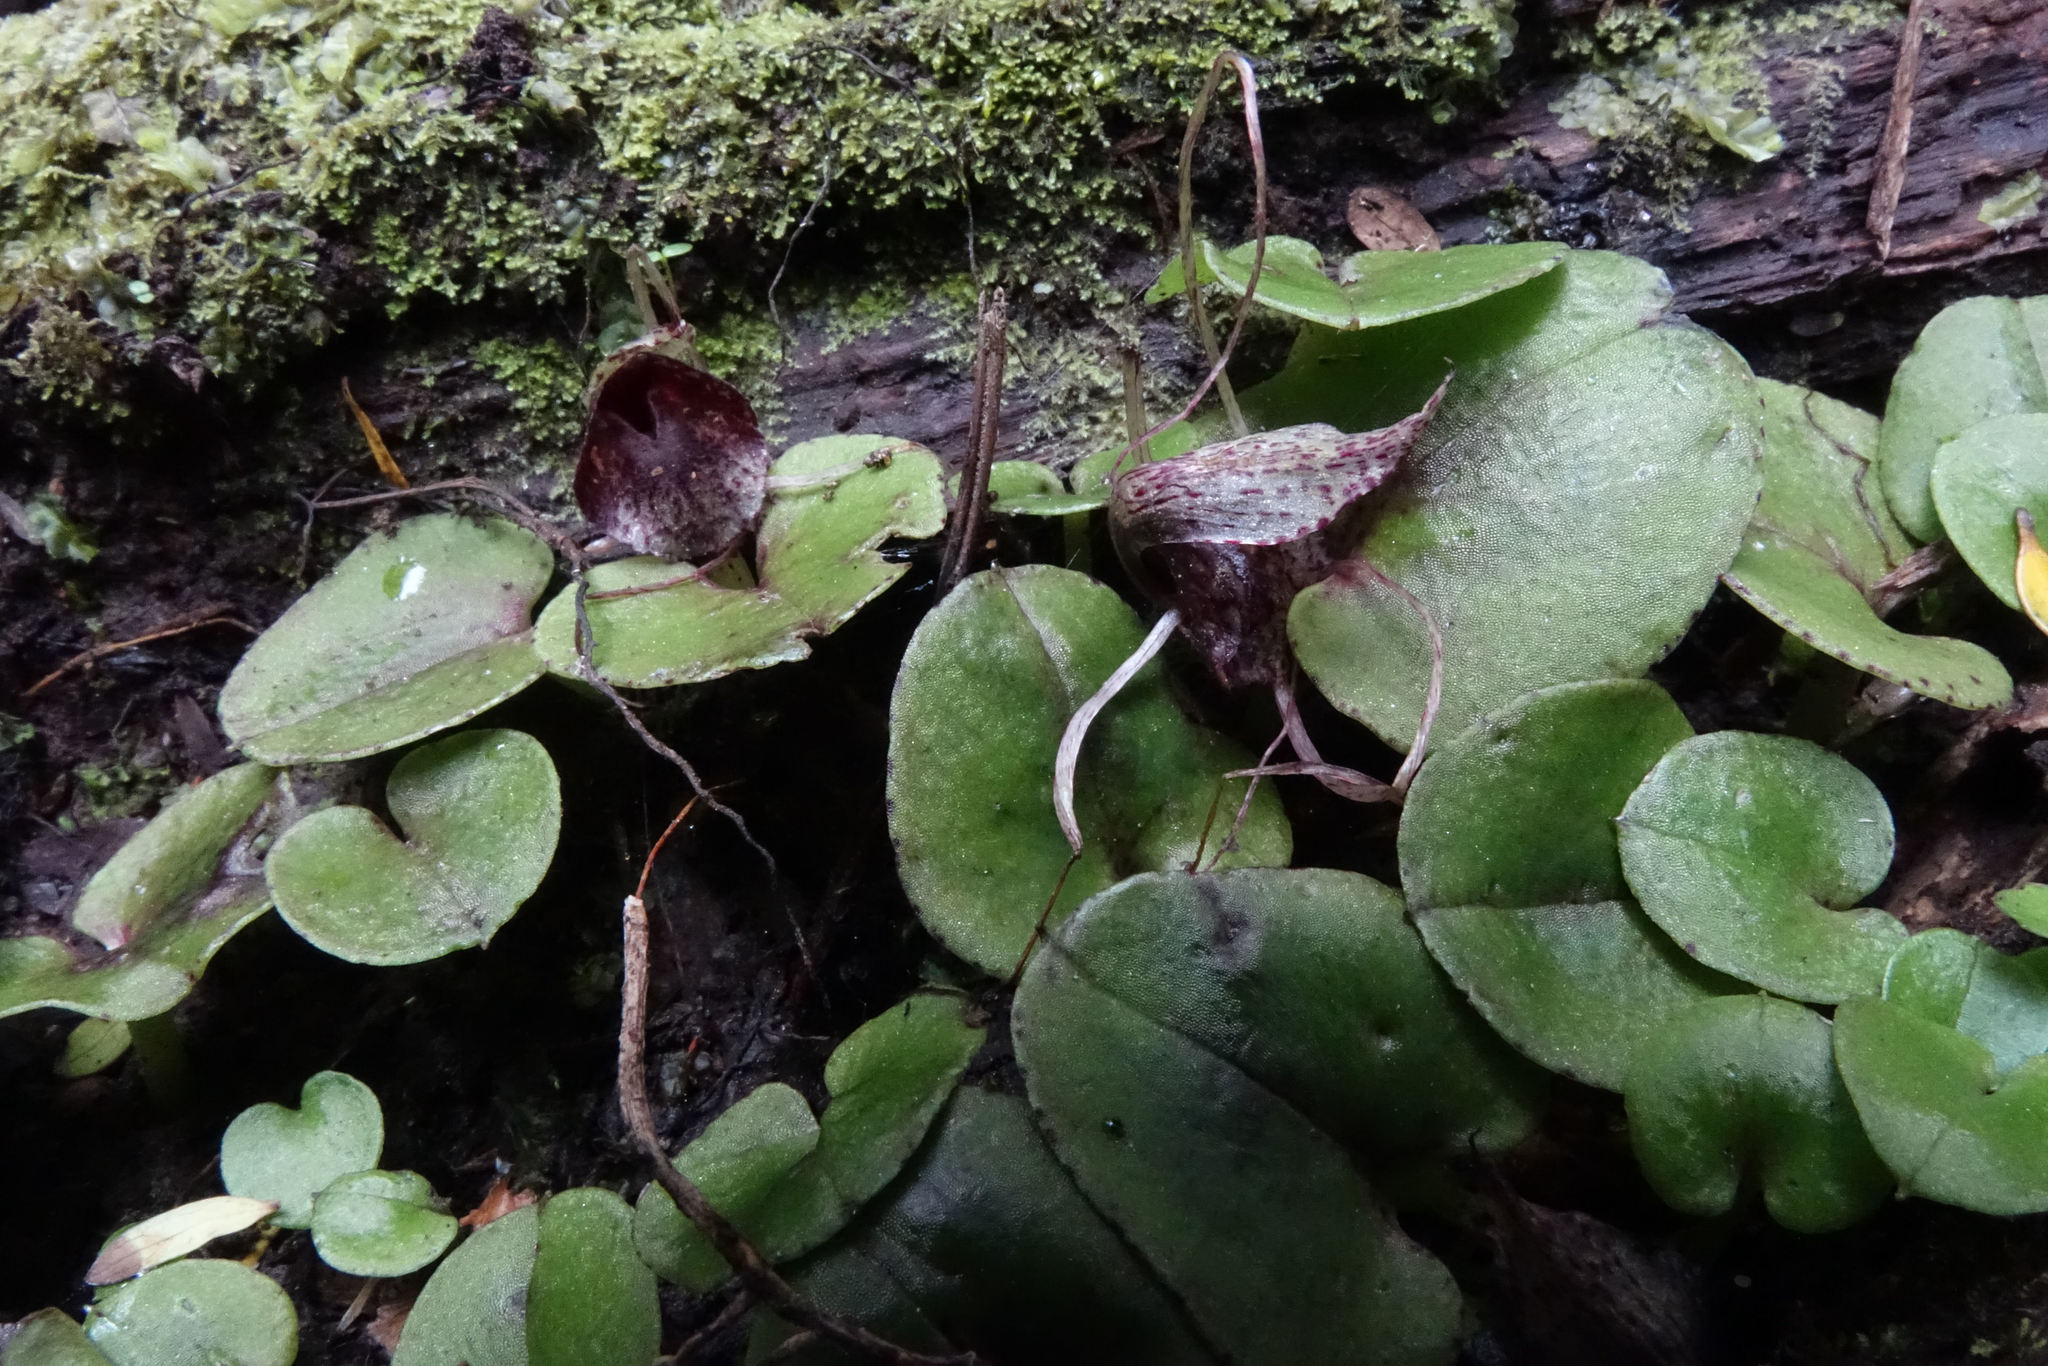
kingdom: Plantae
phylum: Tracheophyta
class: Liliopsida
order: Asparagales
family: Orchidaceae
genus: Corybas
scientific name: Corybas macranthus
